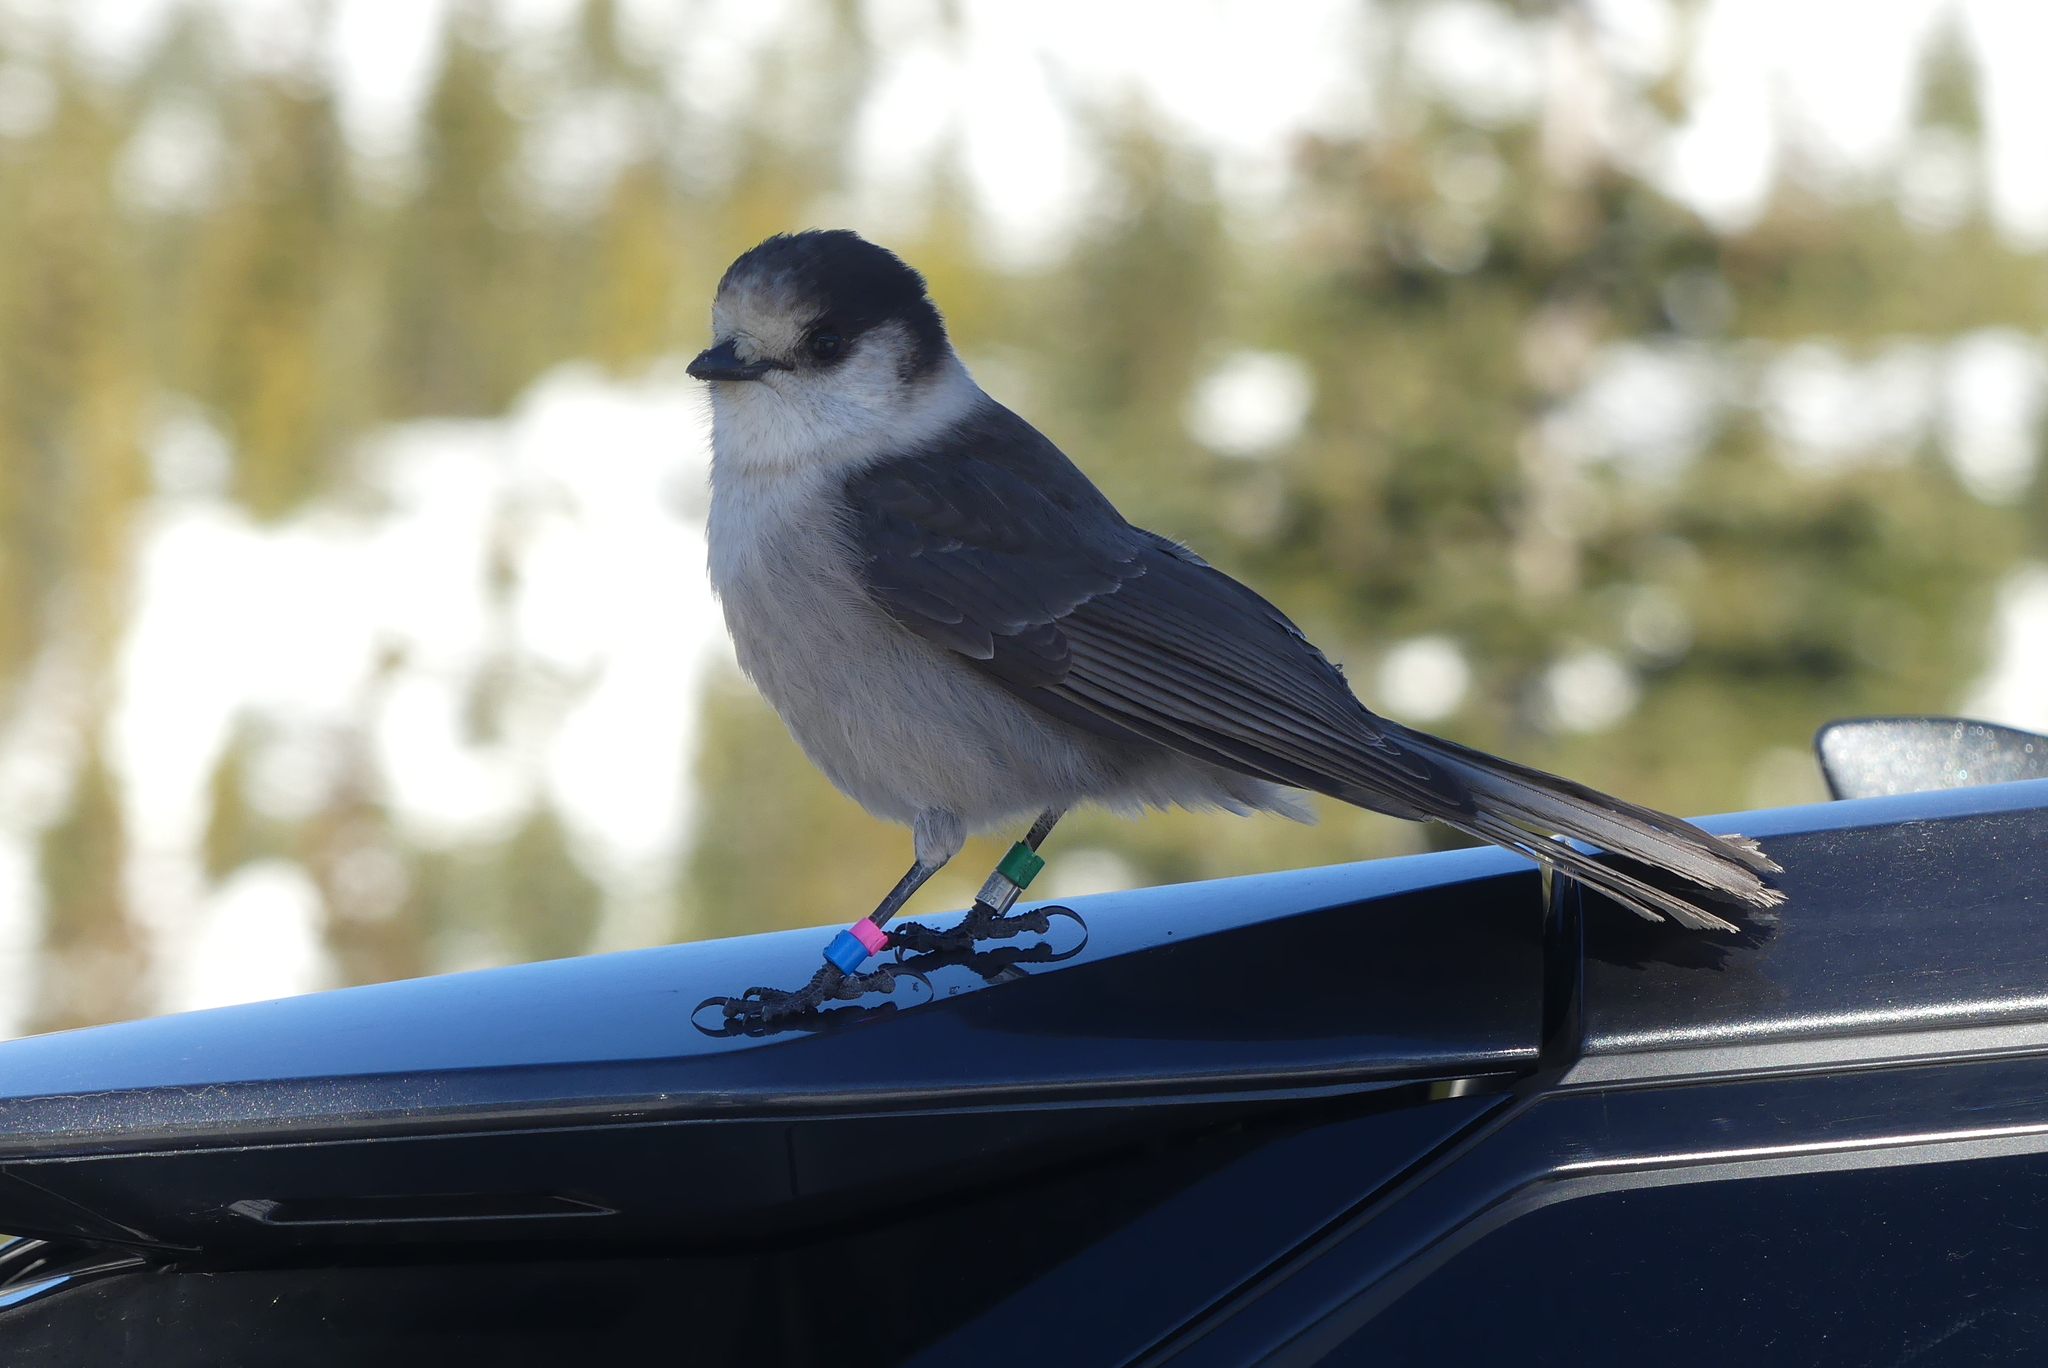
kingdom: Animalia
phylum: Chordata
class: Aves
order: Passeriformes
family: Corvidae
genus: Perisoreus
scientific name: Perisoreus canadensis
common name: Gray jay
